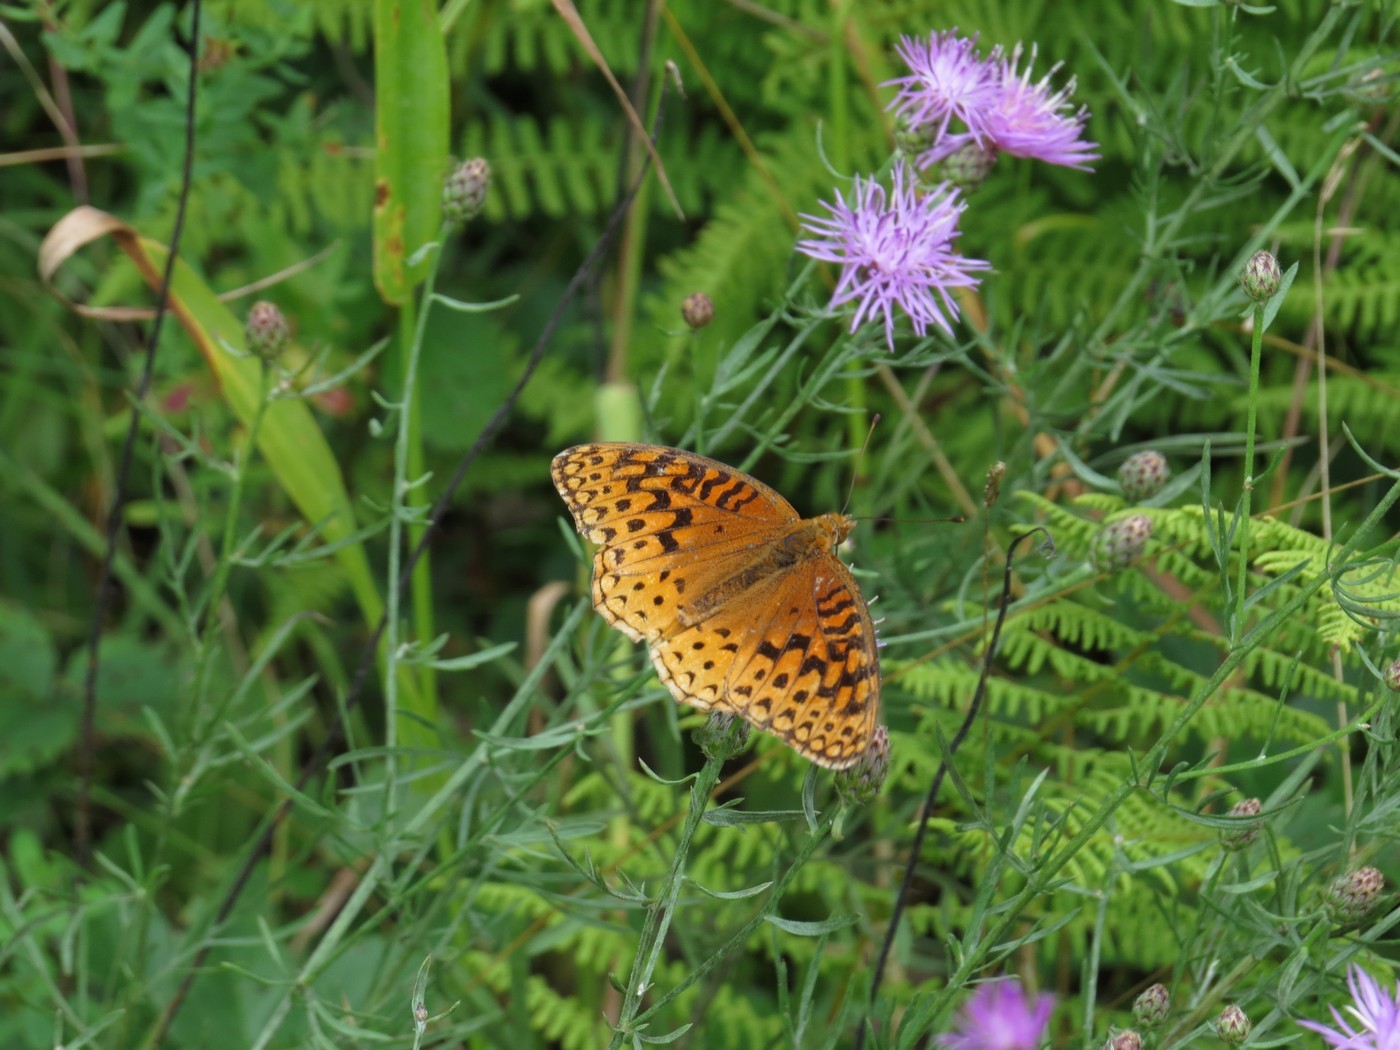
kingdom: Animalia
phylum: Arthropoda
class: Insecta
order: Lepidoptera
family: Nymphalidae
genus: Speyeria
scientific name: Speyeria aphrodite
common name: Aphrodite friitllary
